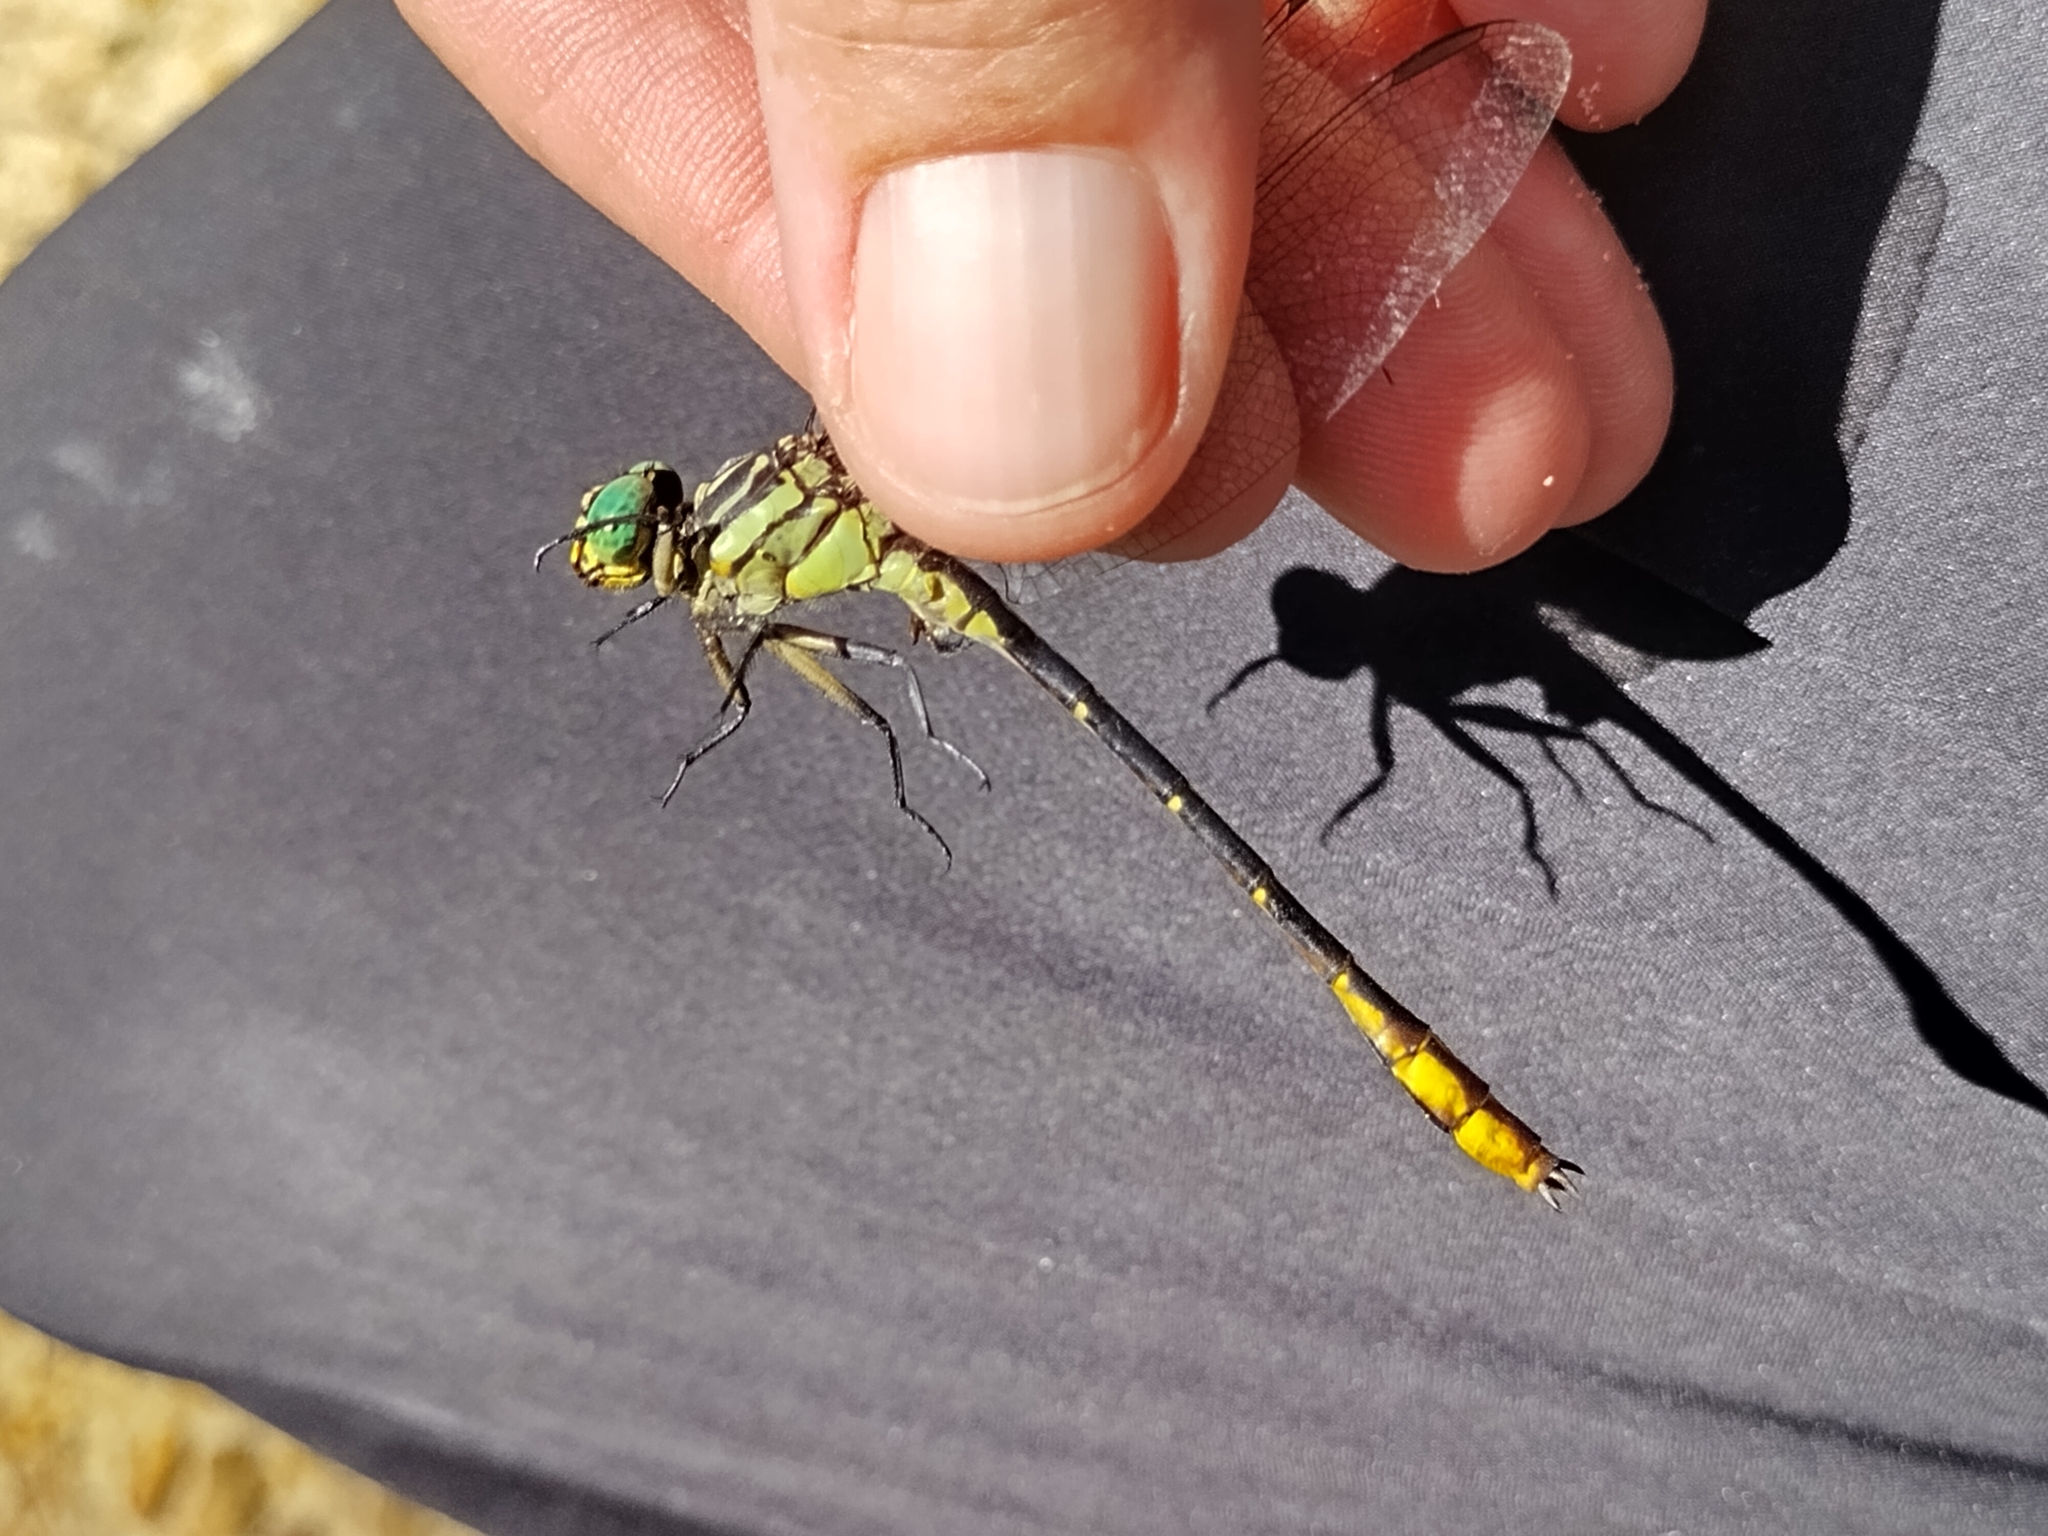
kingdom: Animalia
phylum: Arthropoda
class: Insecta
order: Odonata
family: Gomphidae
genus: Stylurus
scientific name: Stylurus laurae
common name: Laura's clubtail
